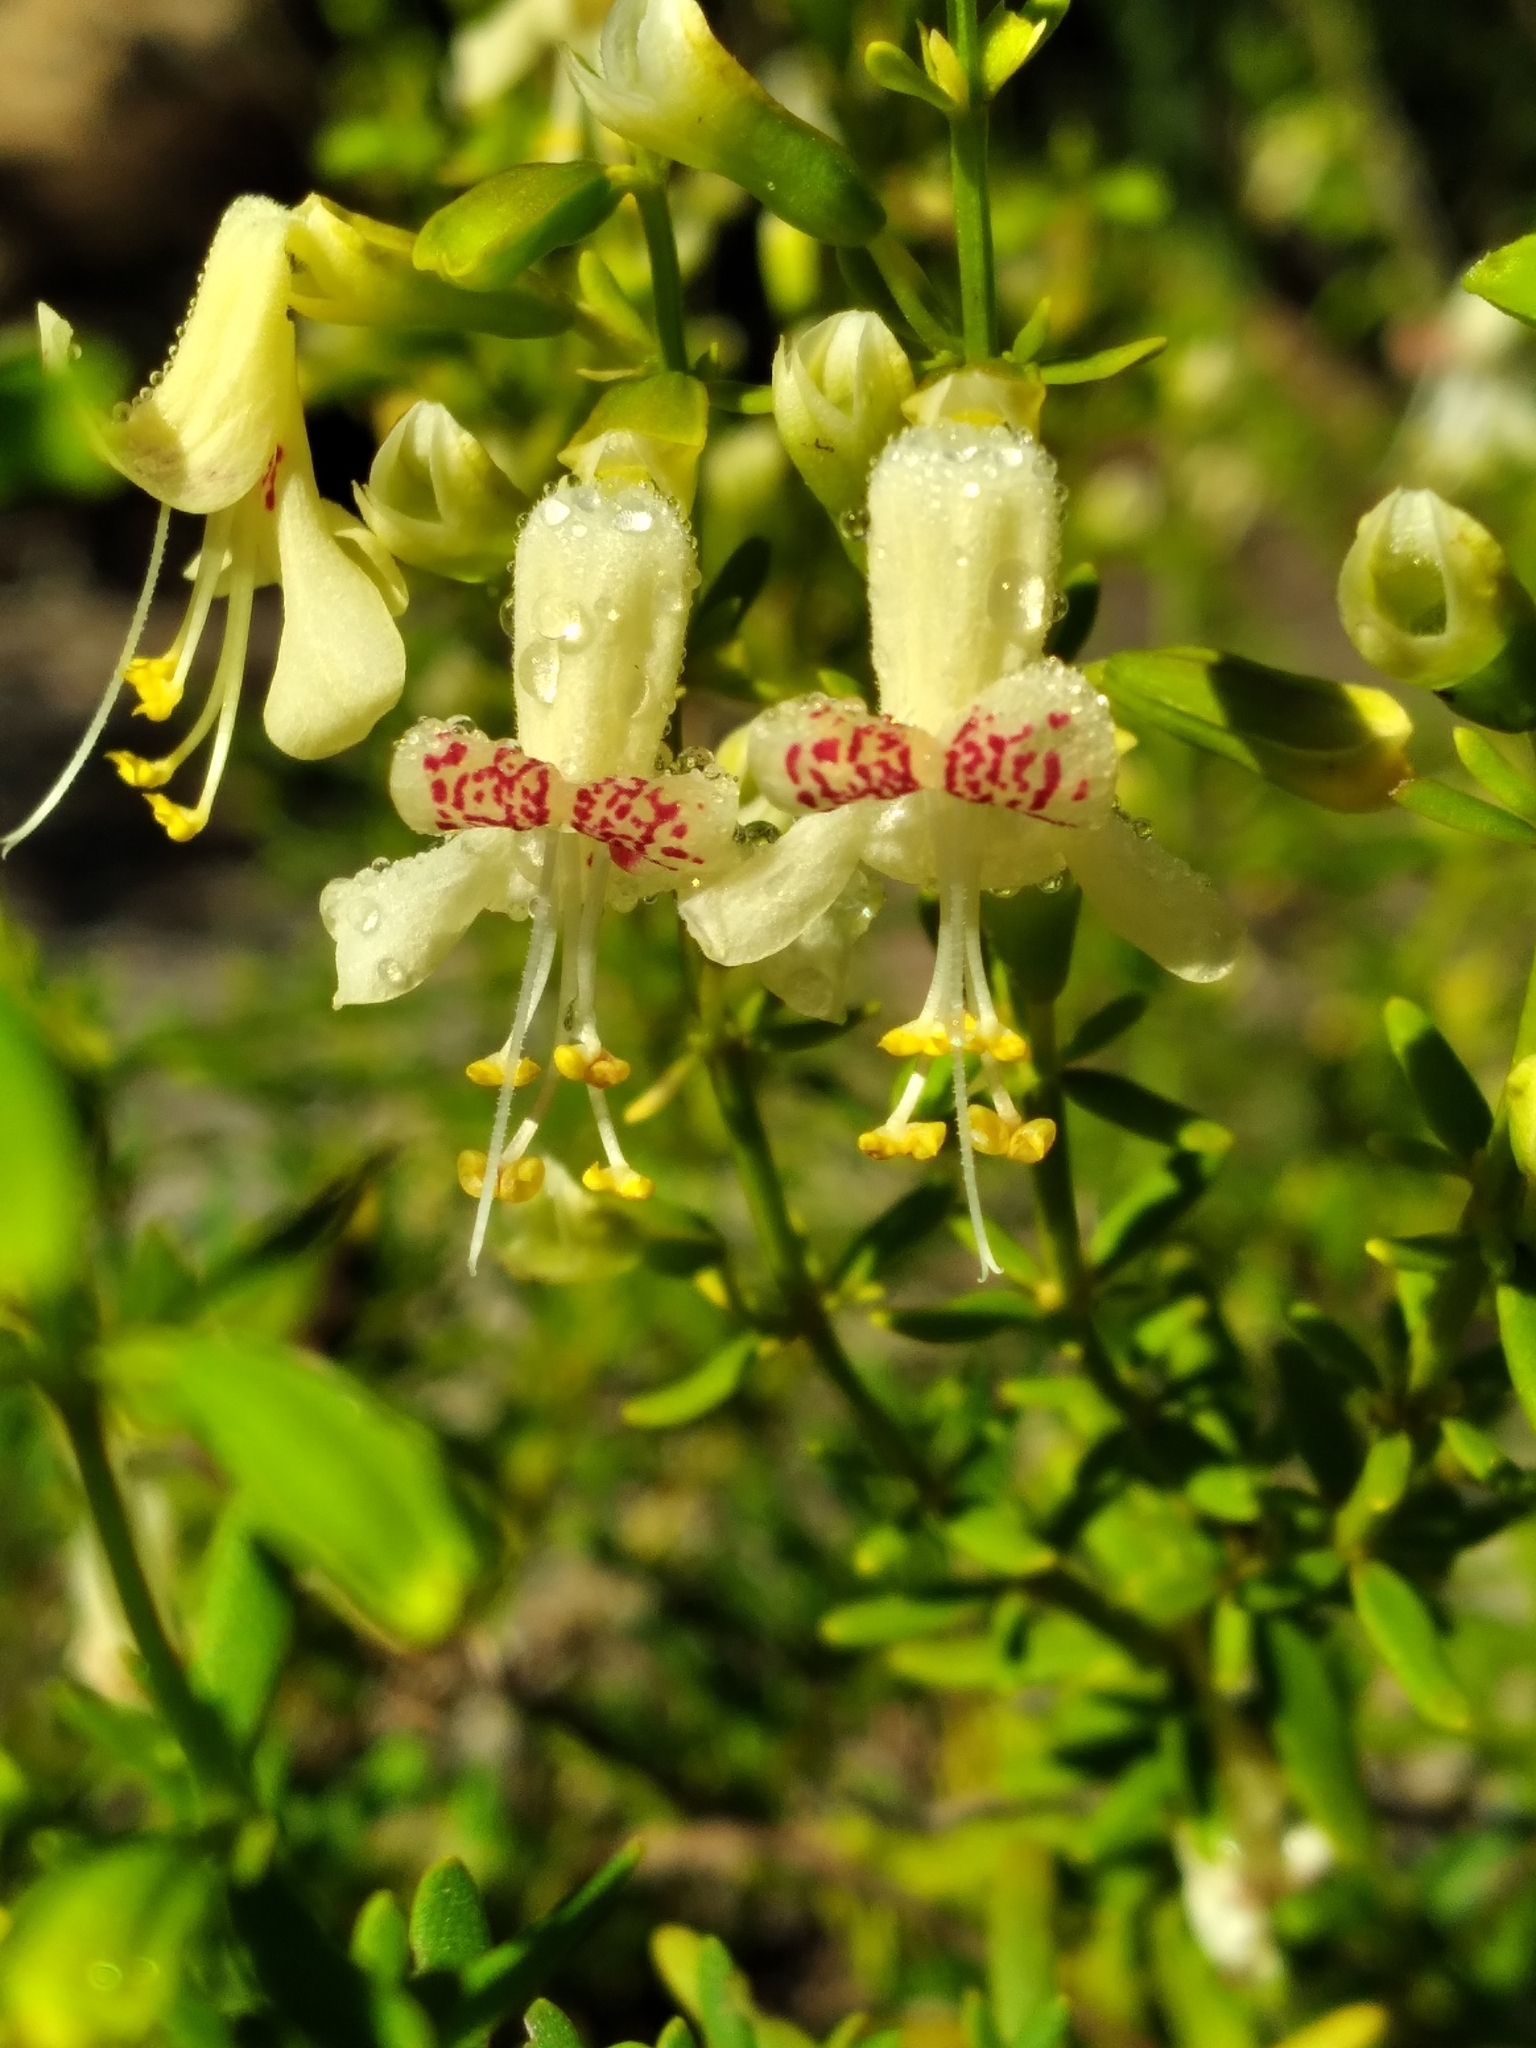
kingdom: Plantae
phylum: Tracheophyta
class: Magnoliopsida
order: Lamiales
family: Lamiaceae
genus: Dicerandra
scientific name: Dicerandra frutescens
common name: Scrub-mint
